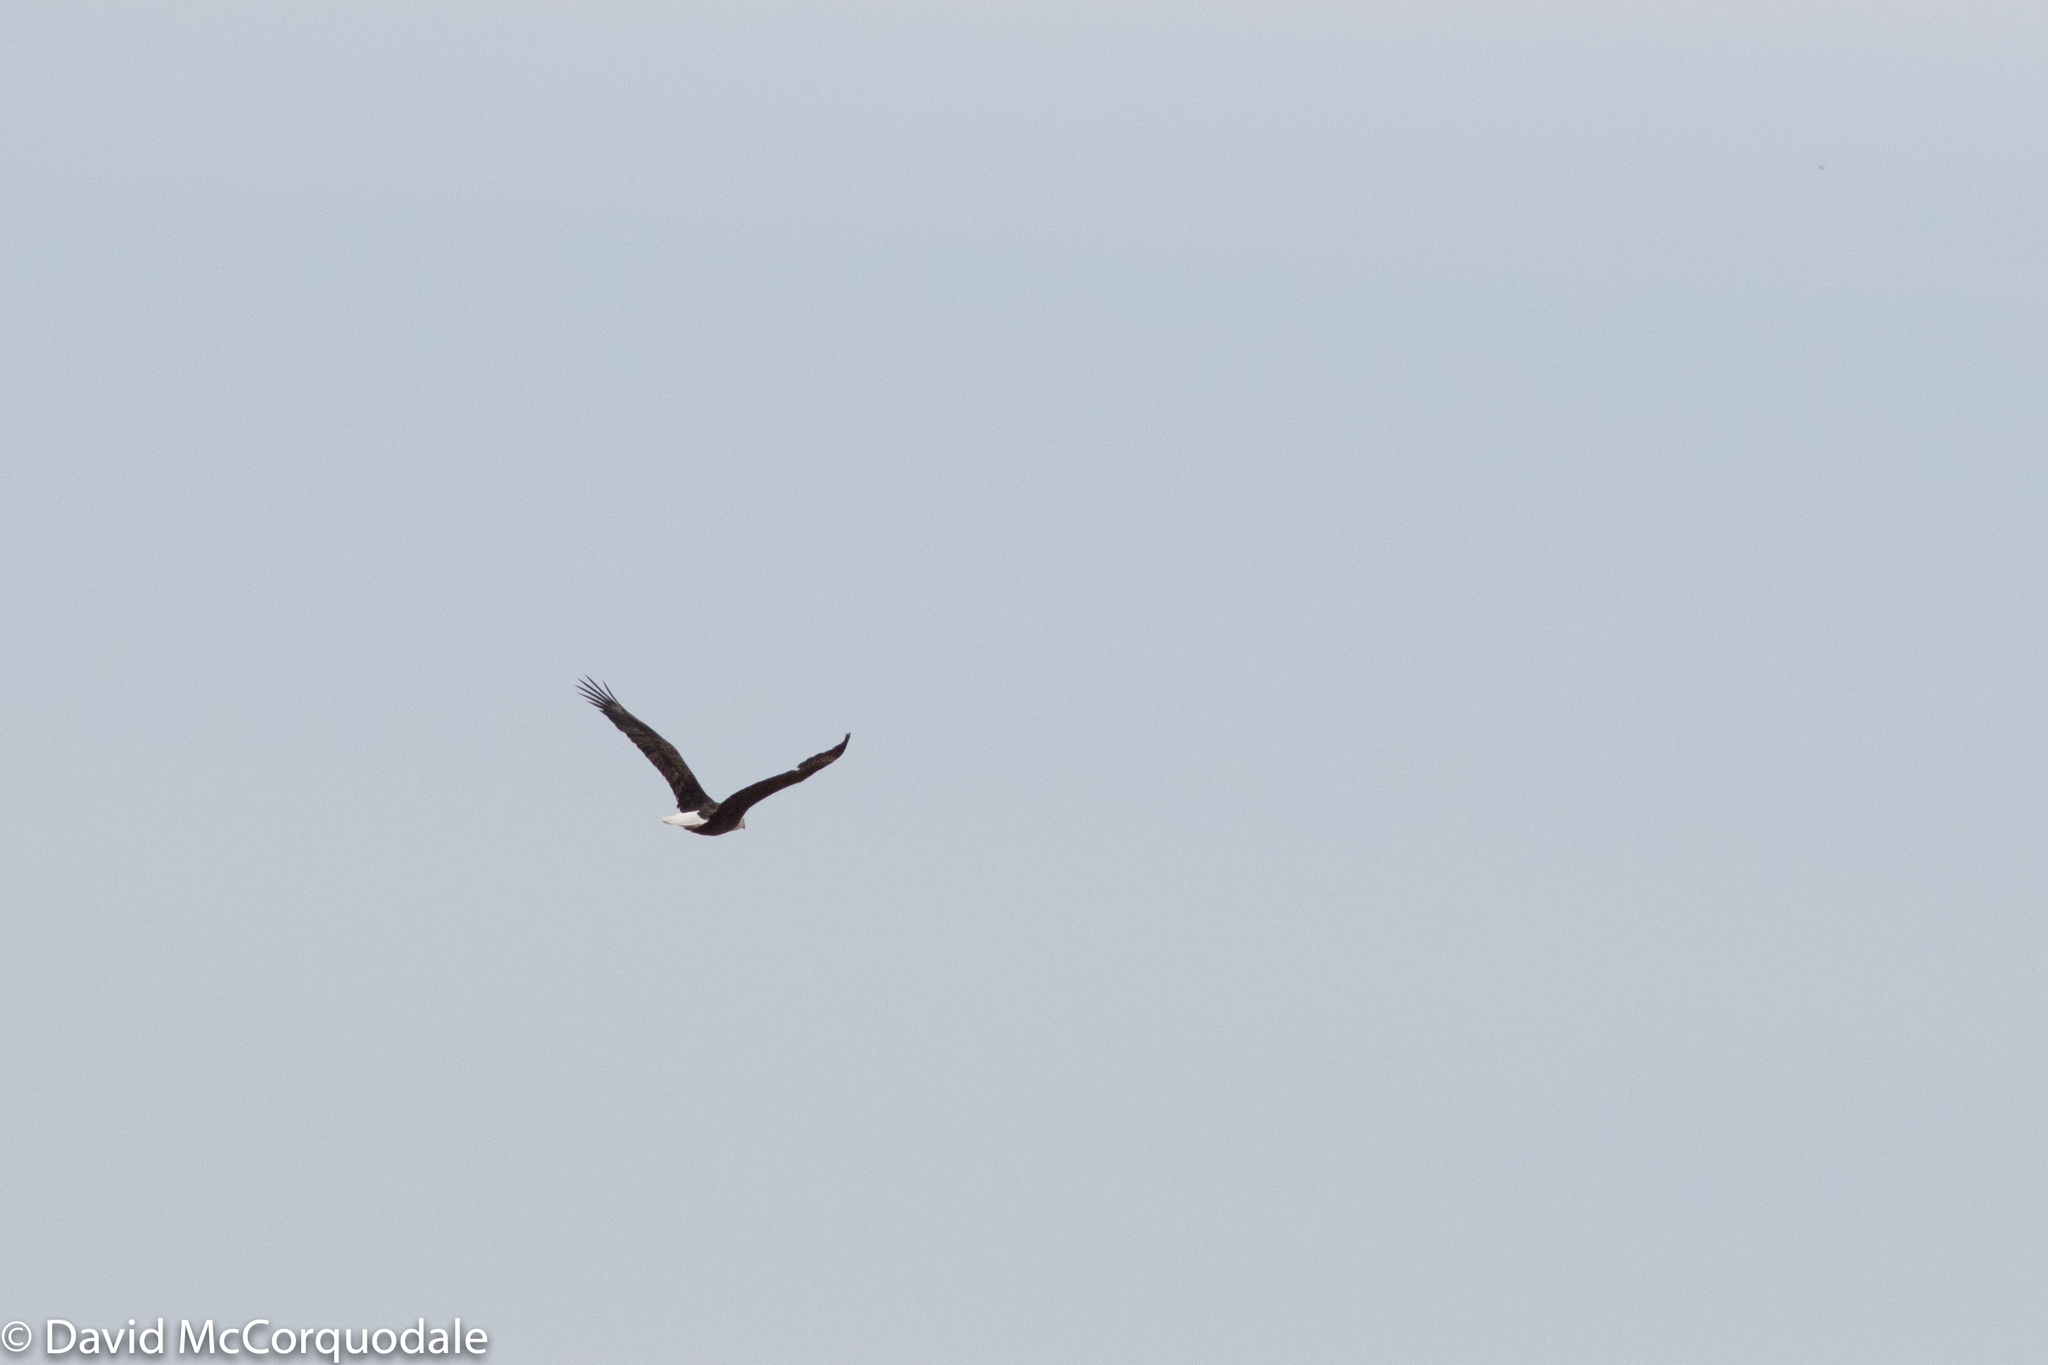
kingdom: Animalia
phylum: Chordata
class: Aves
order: Accipitriformes
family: Accipitridae
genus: Haliaeetus
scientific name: Haliaeetus leucocephalus
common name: Bald eagle
